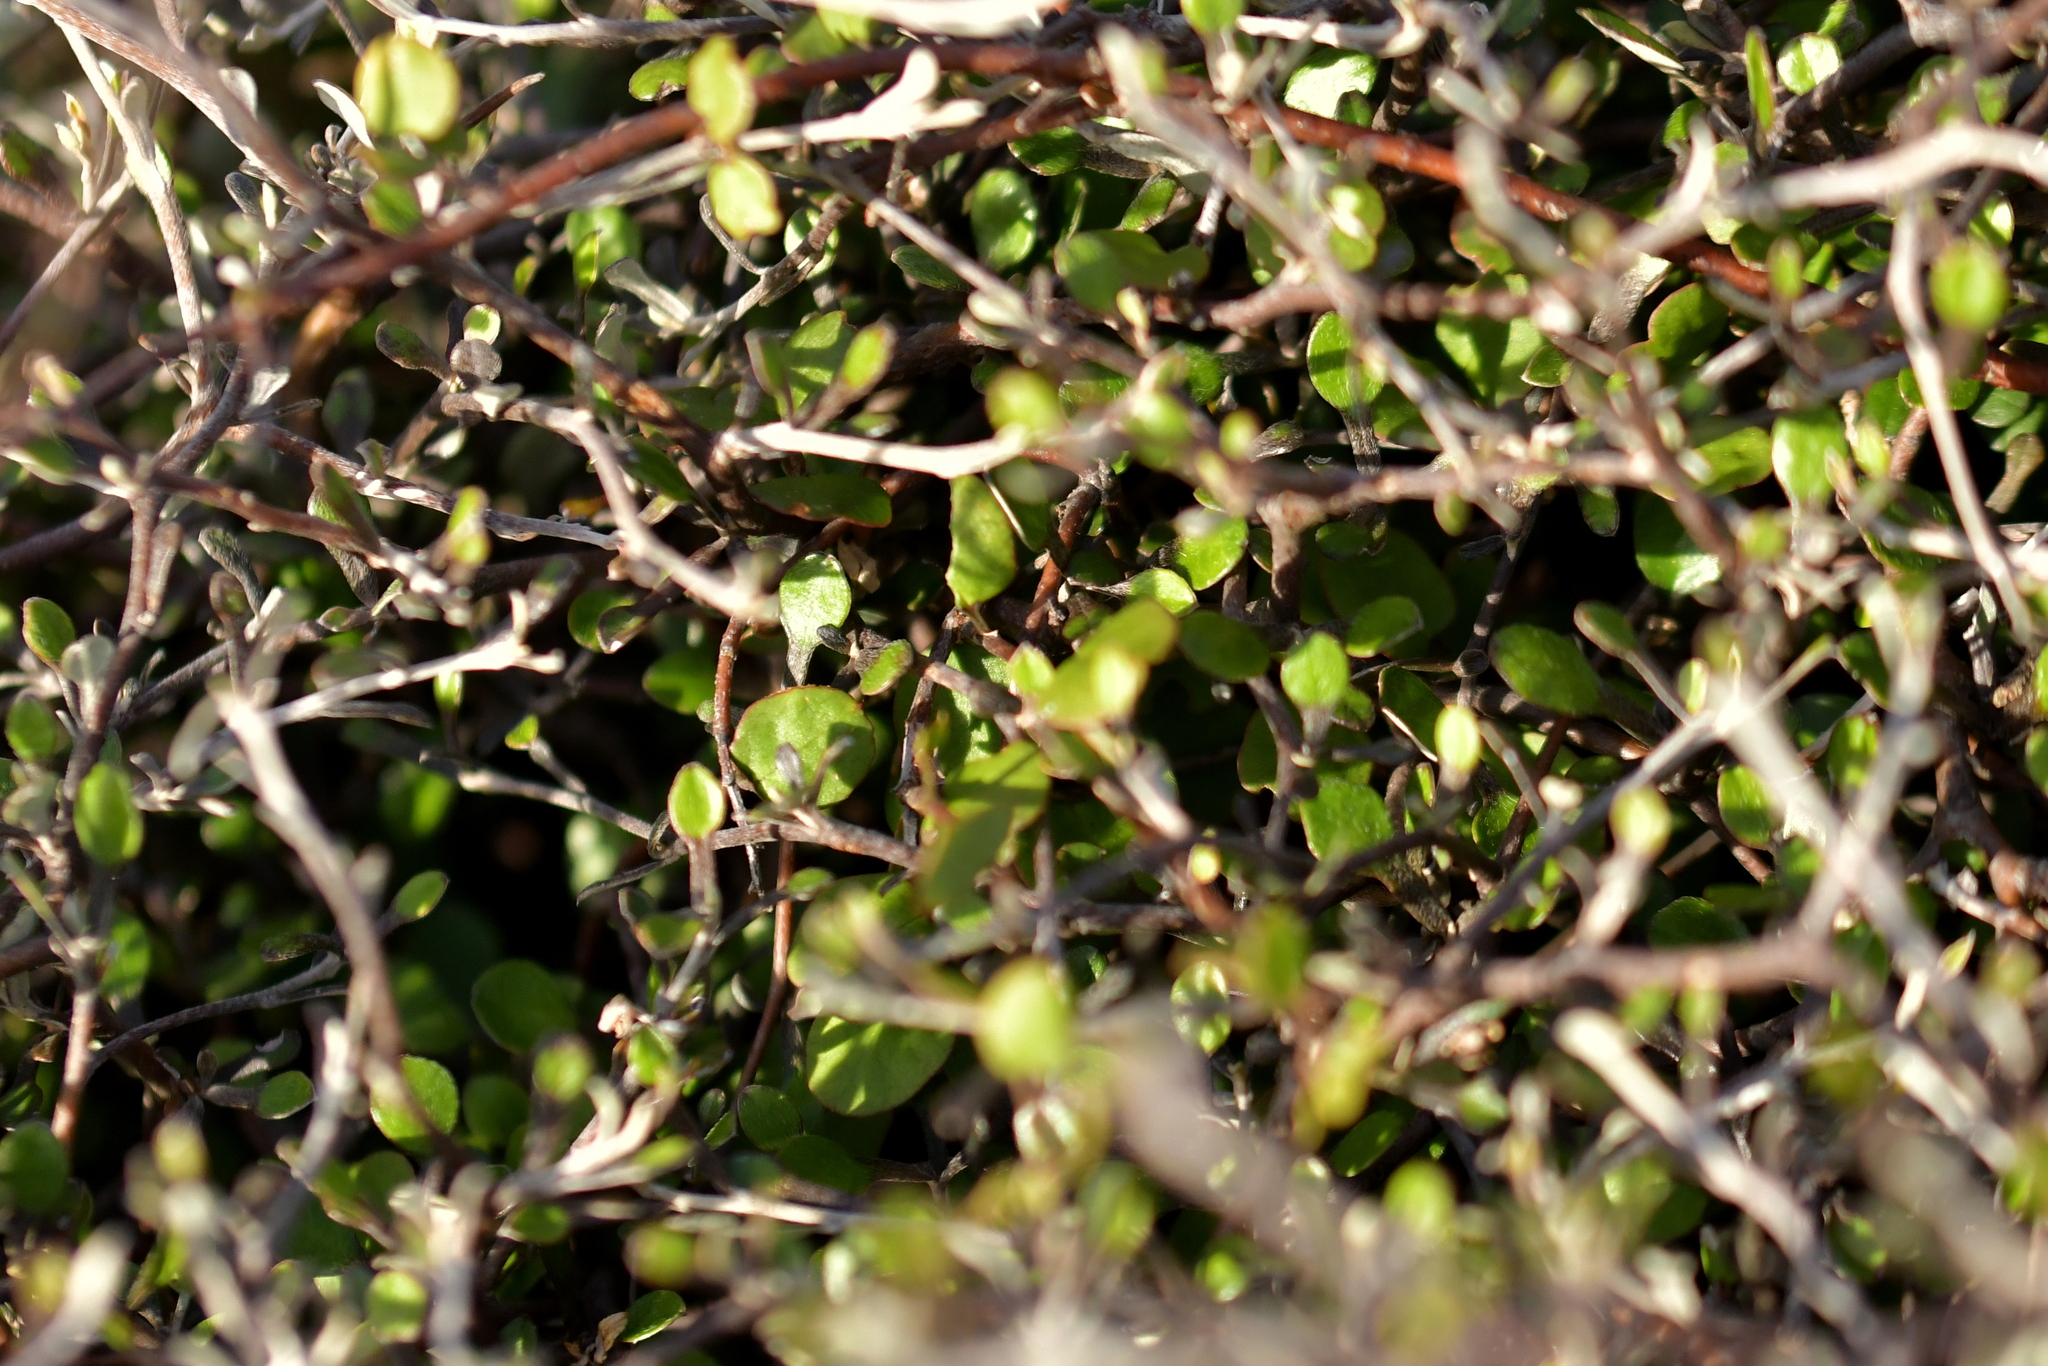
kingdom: Plantae
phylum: Tracheophyta
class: Magnoliopsida
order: Asterales
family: Argophyllaceae
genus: Corokia
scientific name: Corokia cotoneaster
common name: Wire nettingbush
